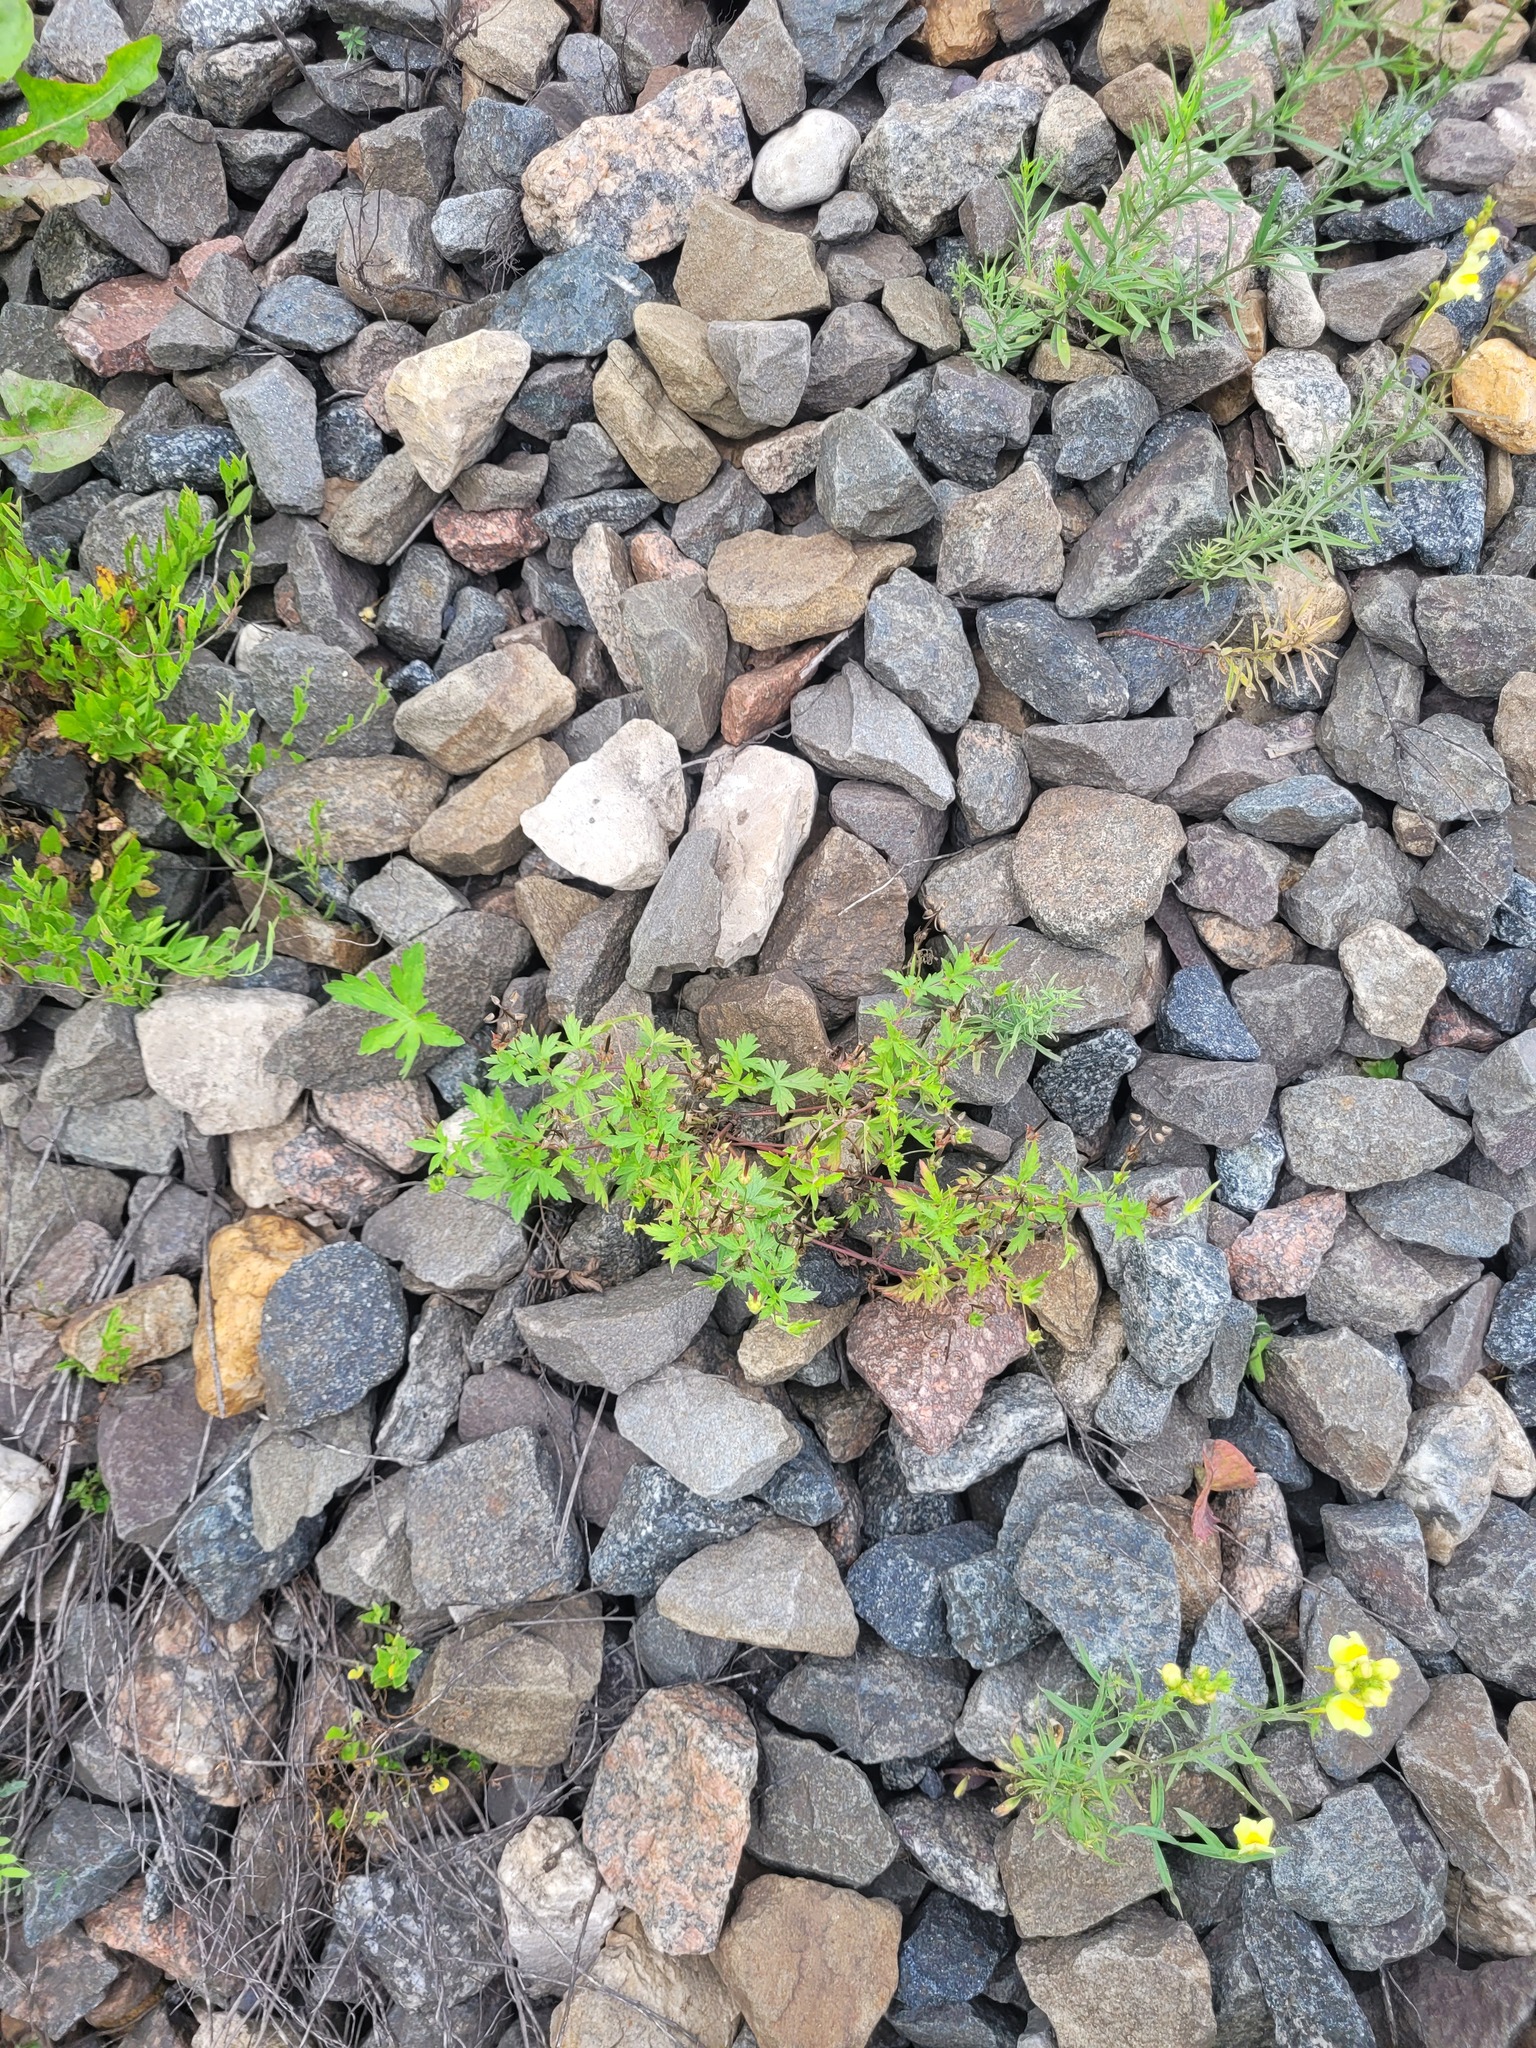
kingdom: Plantae
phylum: Tracheophyta
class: Magnoliopsida
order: Geraniales
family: Geraniaceae
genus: Geranium
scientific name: Geranium sibiricum
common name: Siberian crane's-bill
